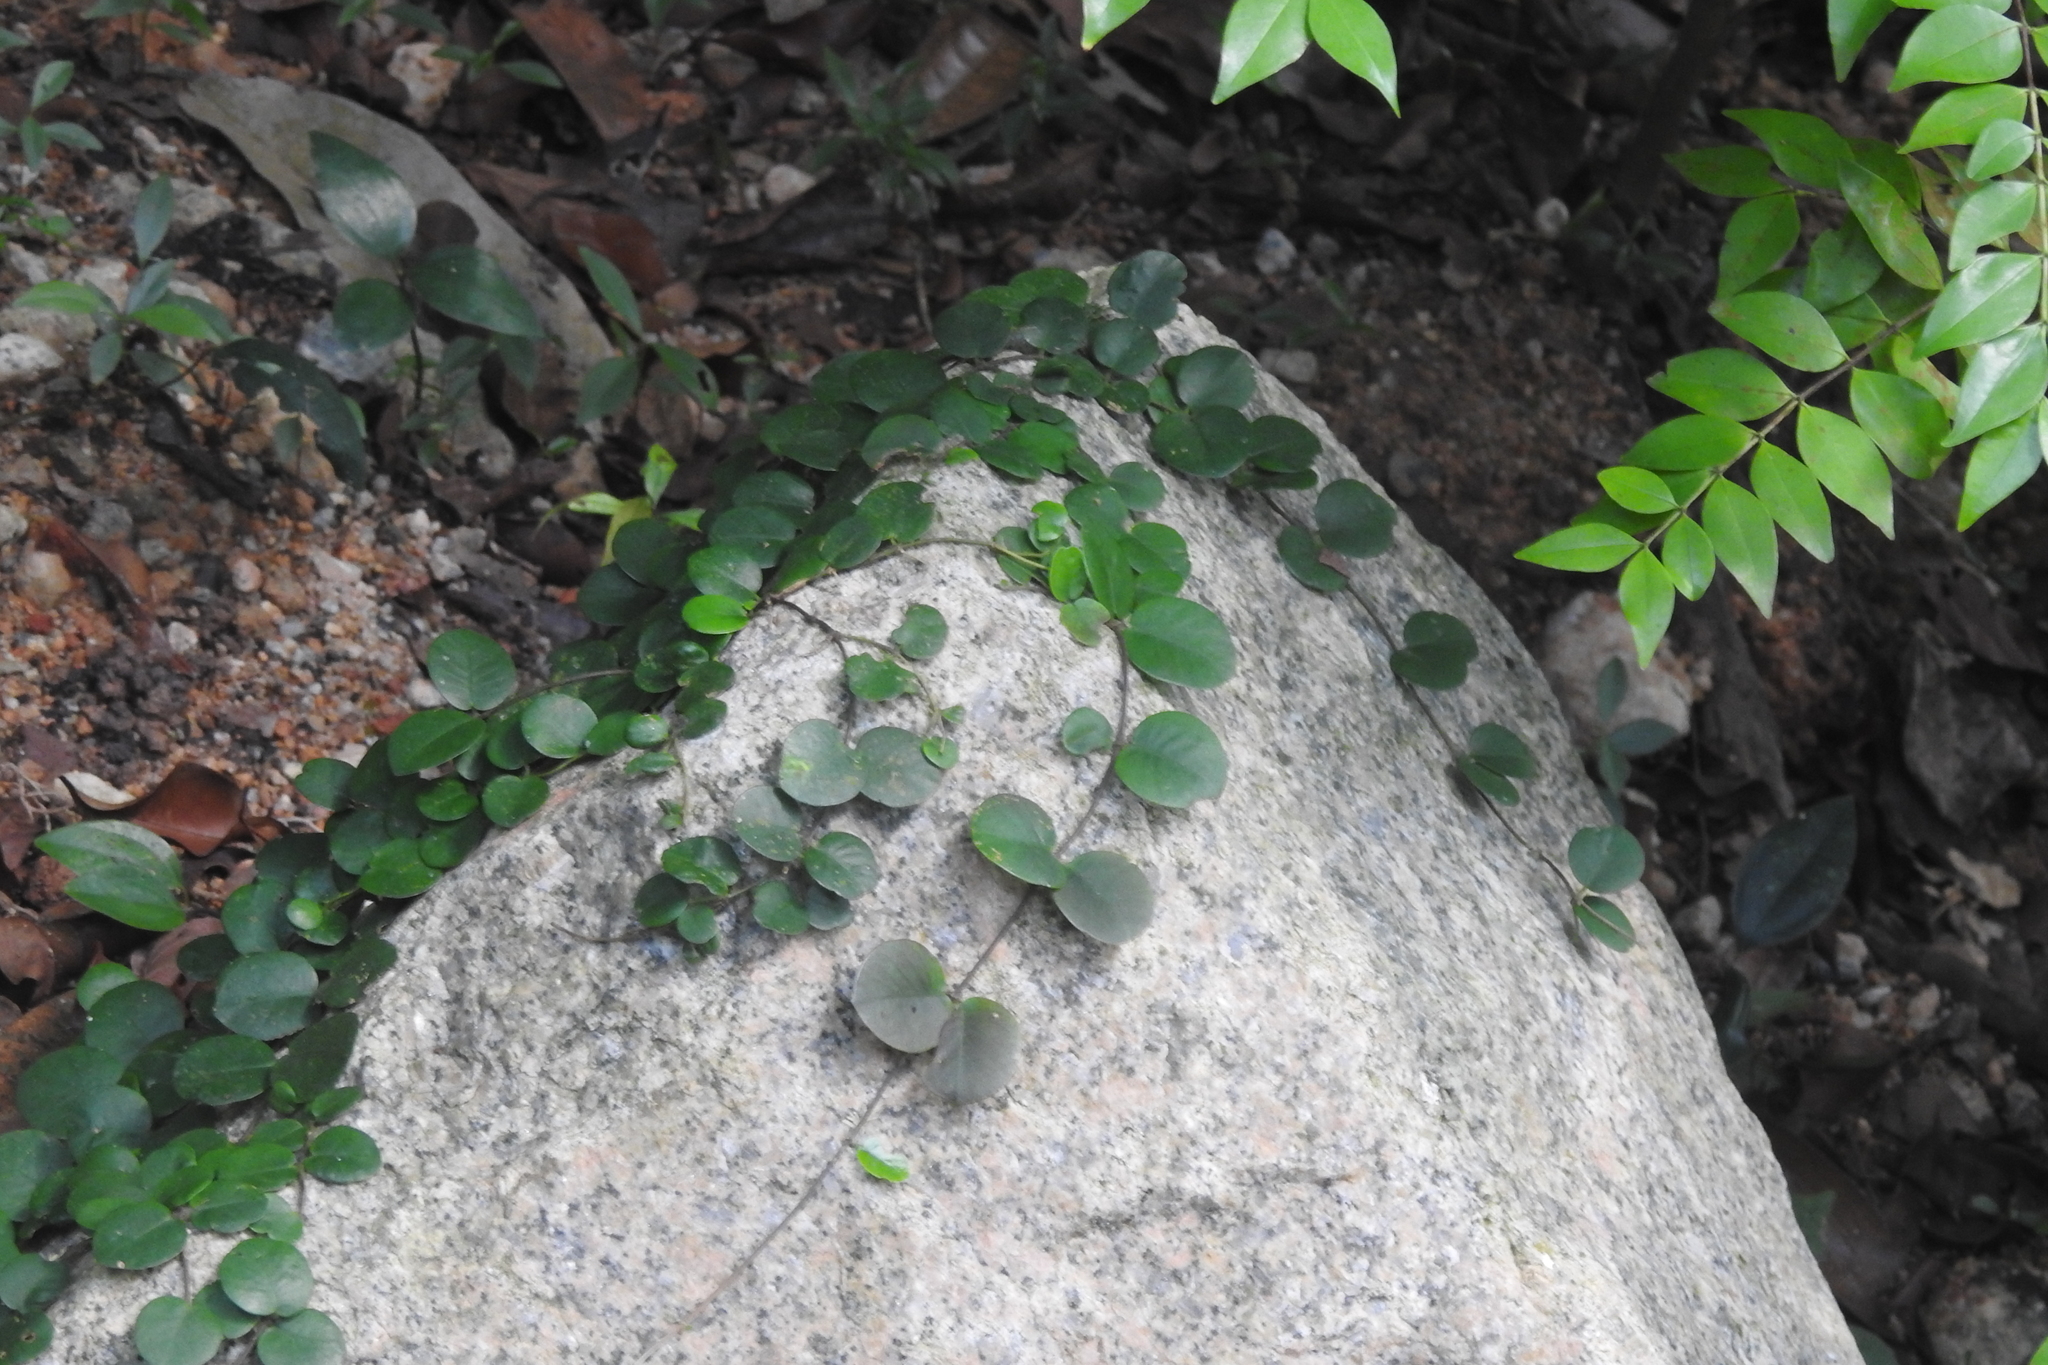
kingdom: Plantae
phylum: Tracheophyta
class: Magnoliopsida
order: Gentianales
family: Apocynaceae
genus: Micrechites
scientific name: Micrechites serpyllifolia
